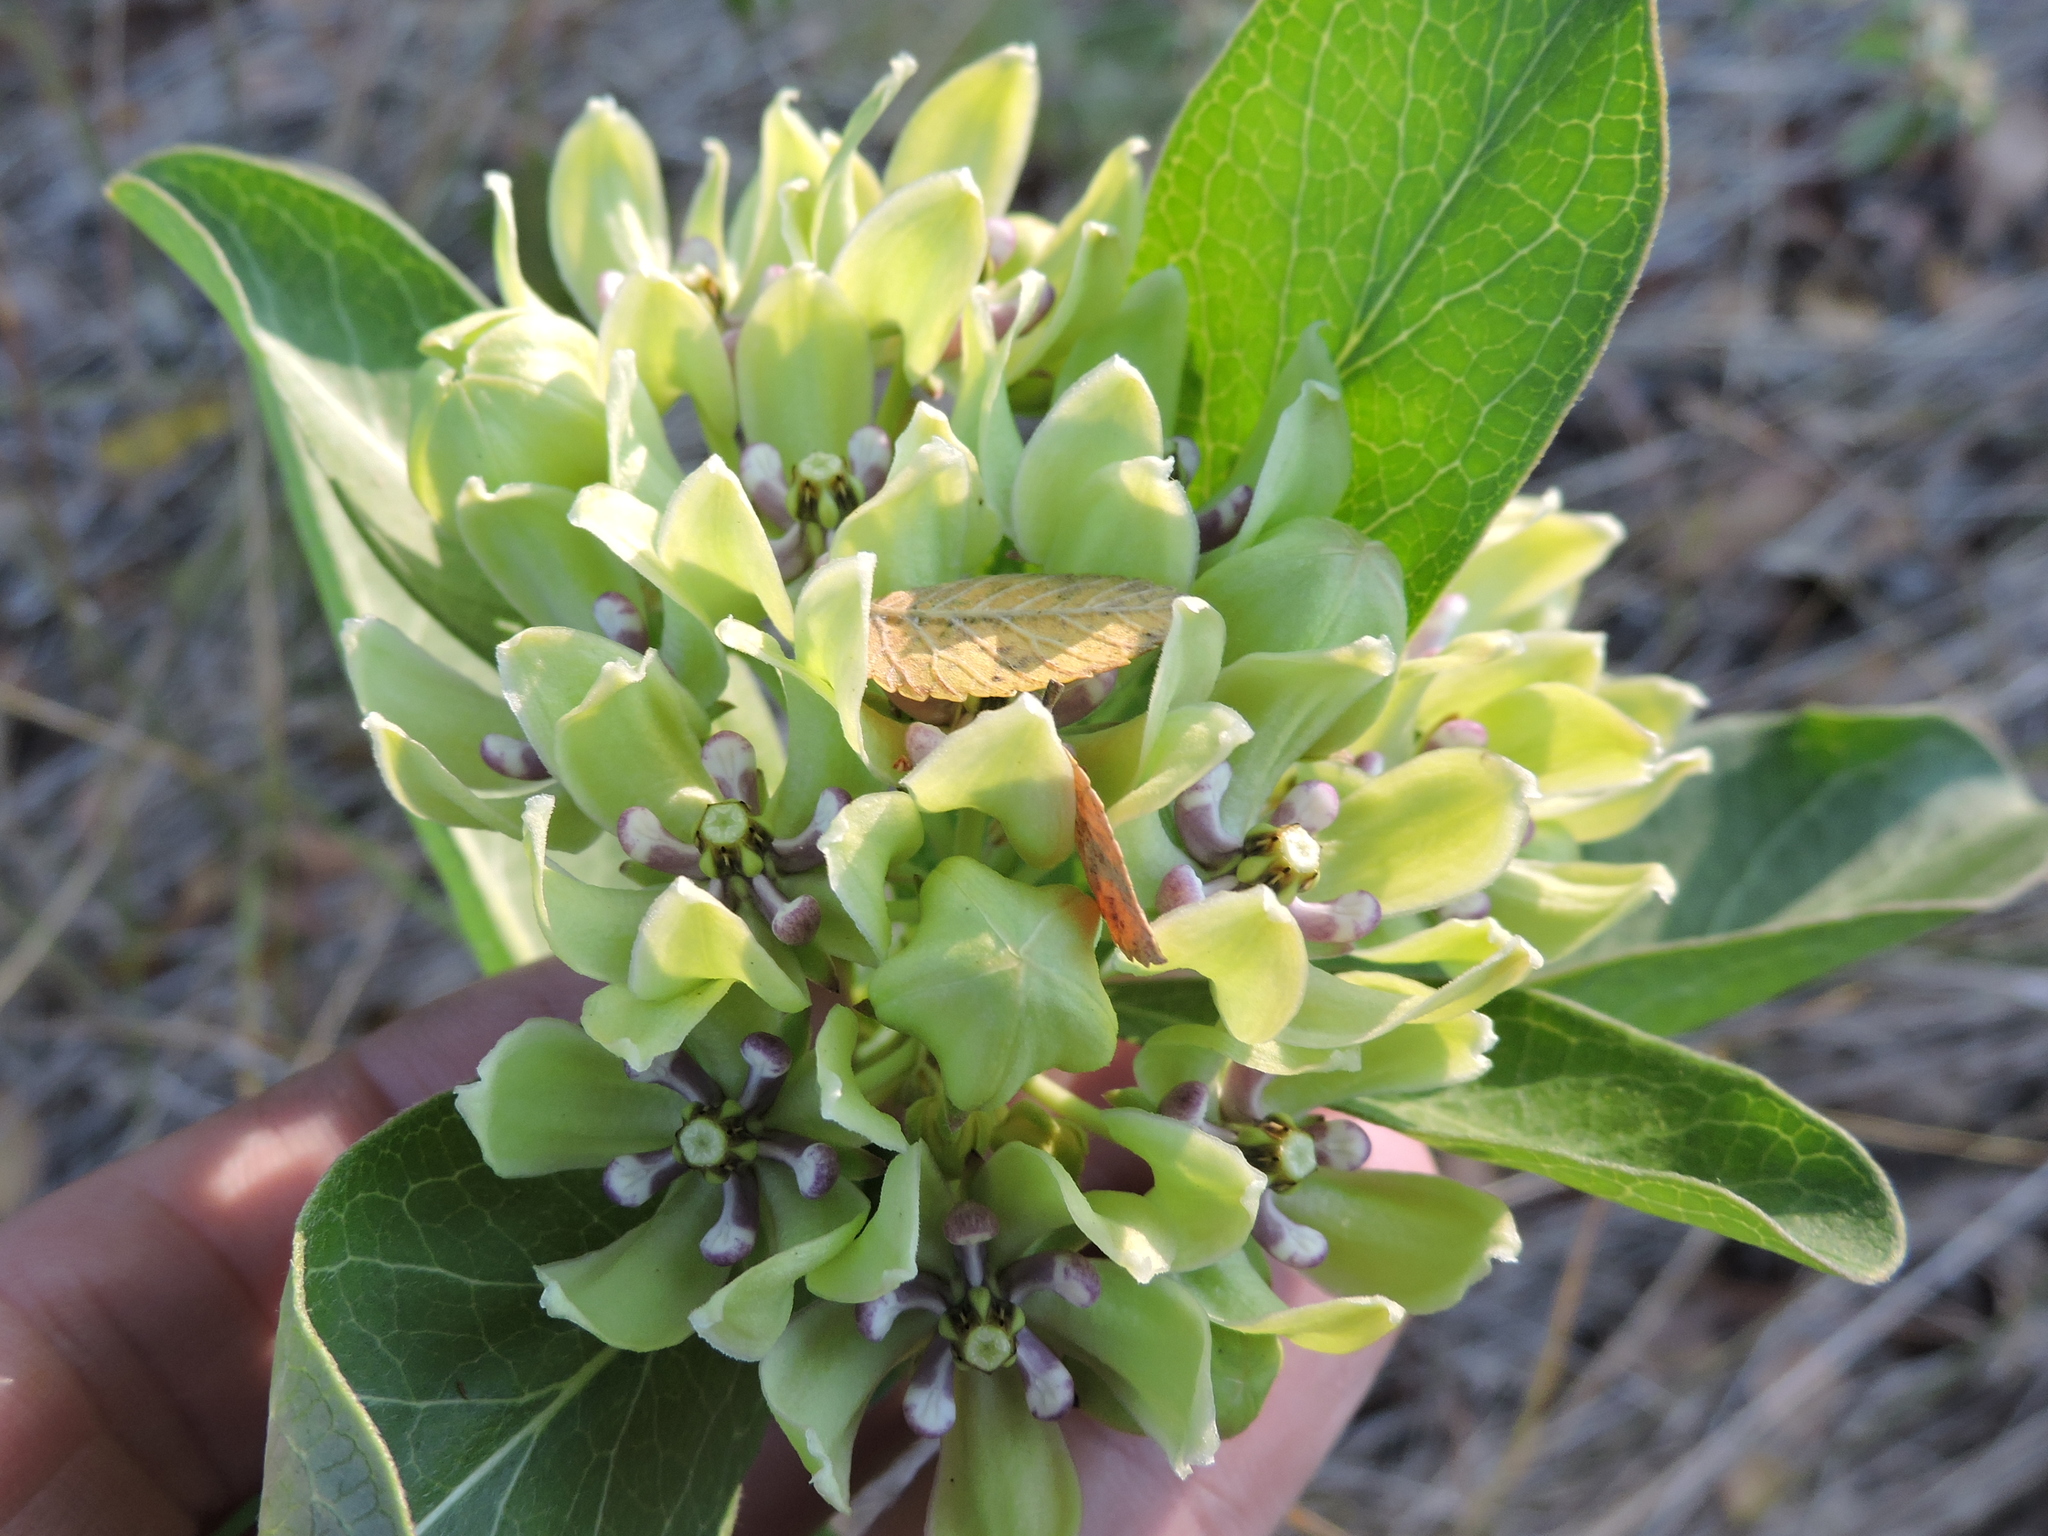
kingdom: Plantae
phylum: Tracheophyta
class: Magnoliopsida
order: Gentianales
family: Apocynaceae
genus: Asclepias
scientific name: Asclepias viridis
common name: Antelope-horns
